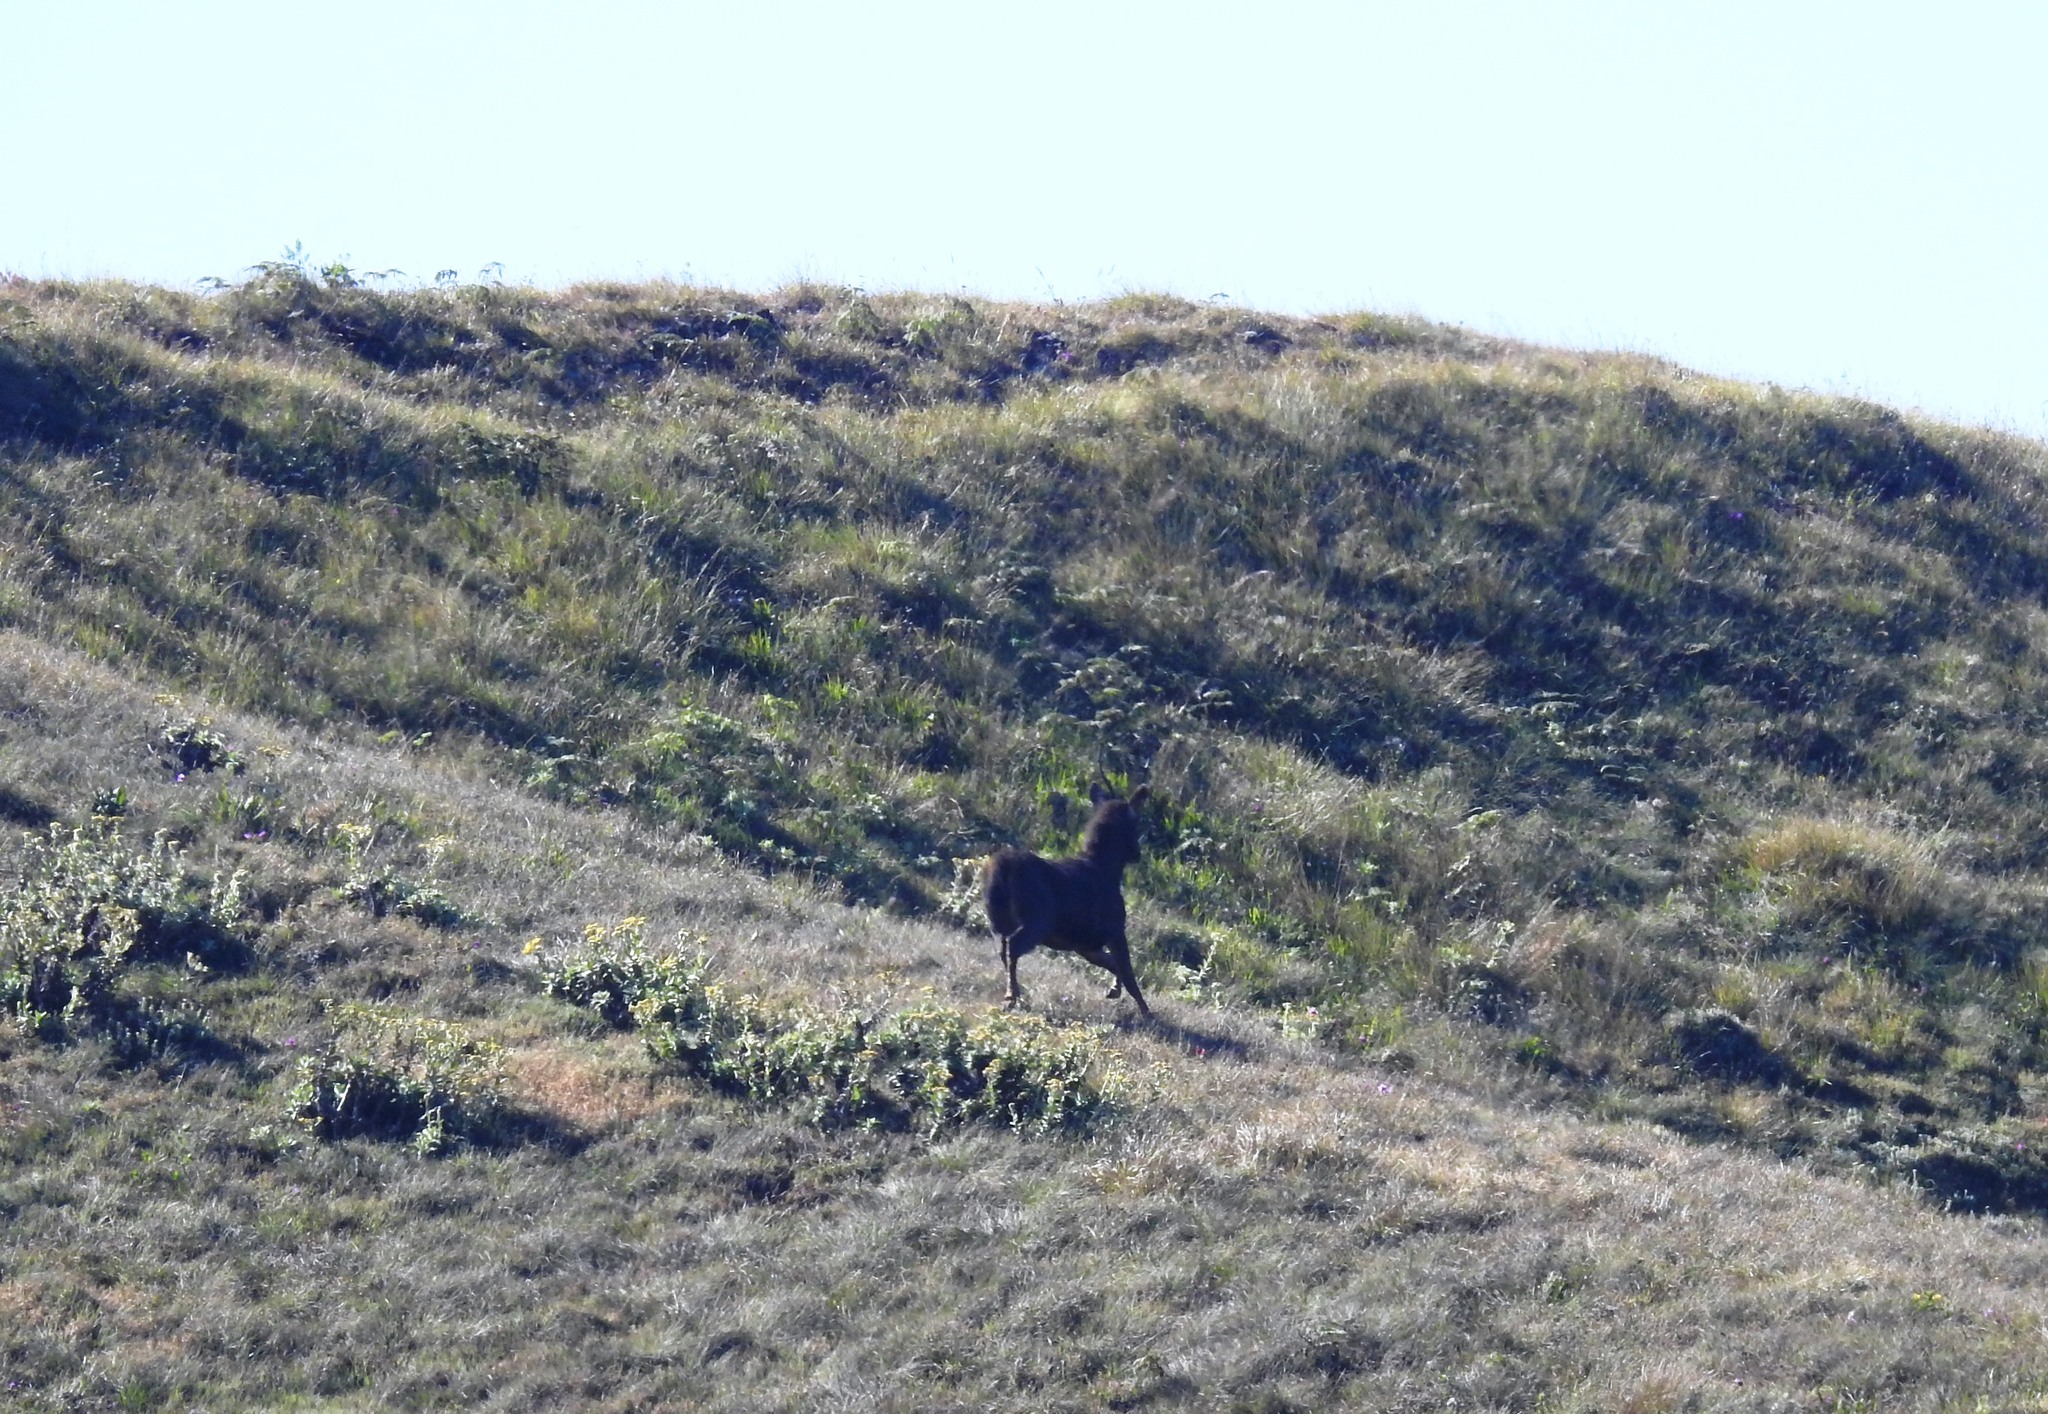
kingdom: Animalia
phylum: Chordata
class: Mammalia
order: Artiodactyla
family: Cervidae
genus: Rusa
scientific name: Rusa unicolor
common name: Sambar
